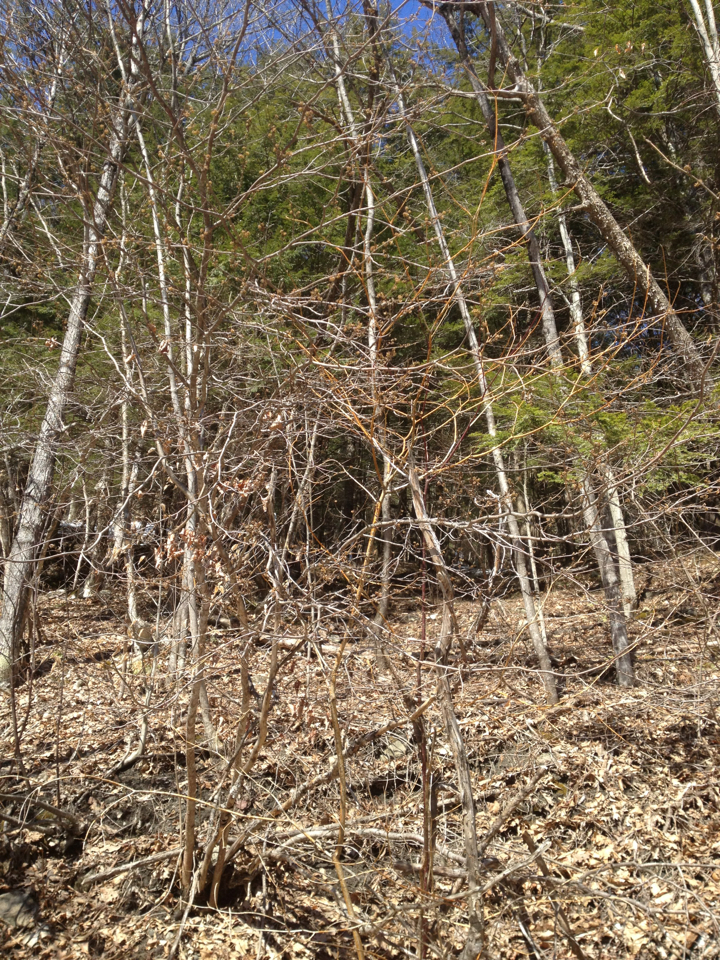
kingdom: Plantae
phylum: Tracheophyta
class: Magnoliopsida
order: Cornales
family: Cornaceae
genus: Cornus
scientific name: Cornus alternifolia
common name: Pagoda dogwood
